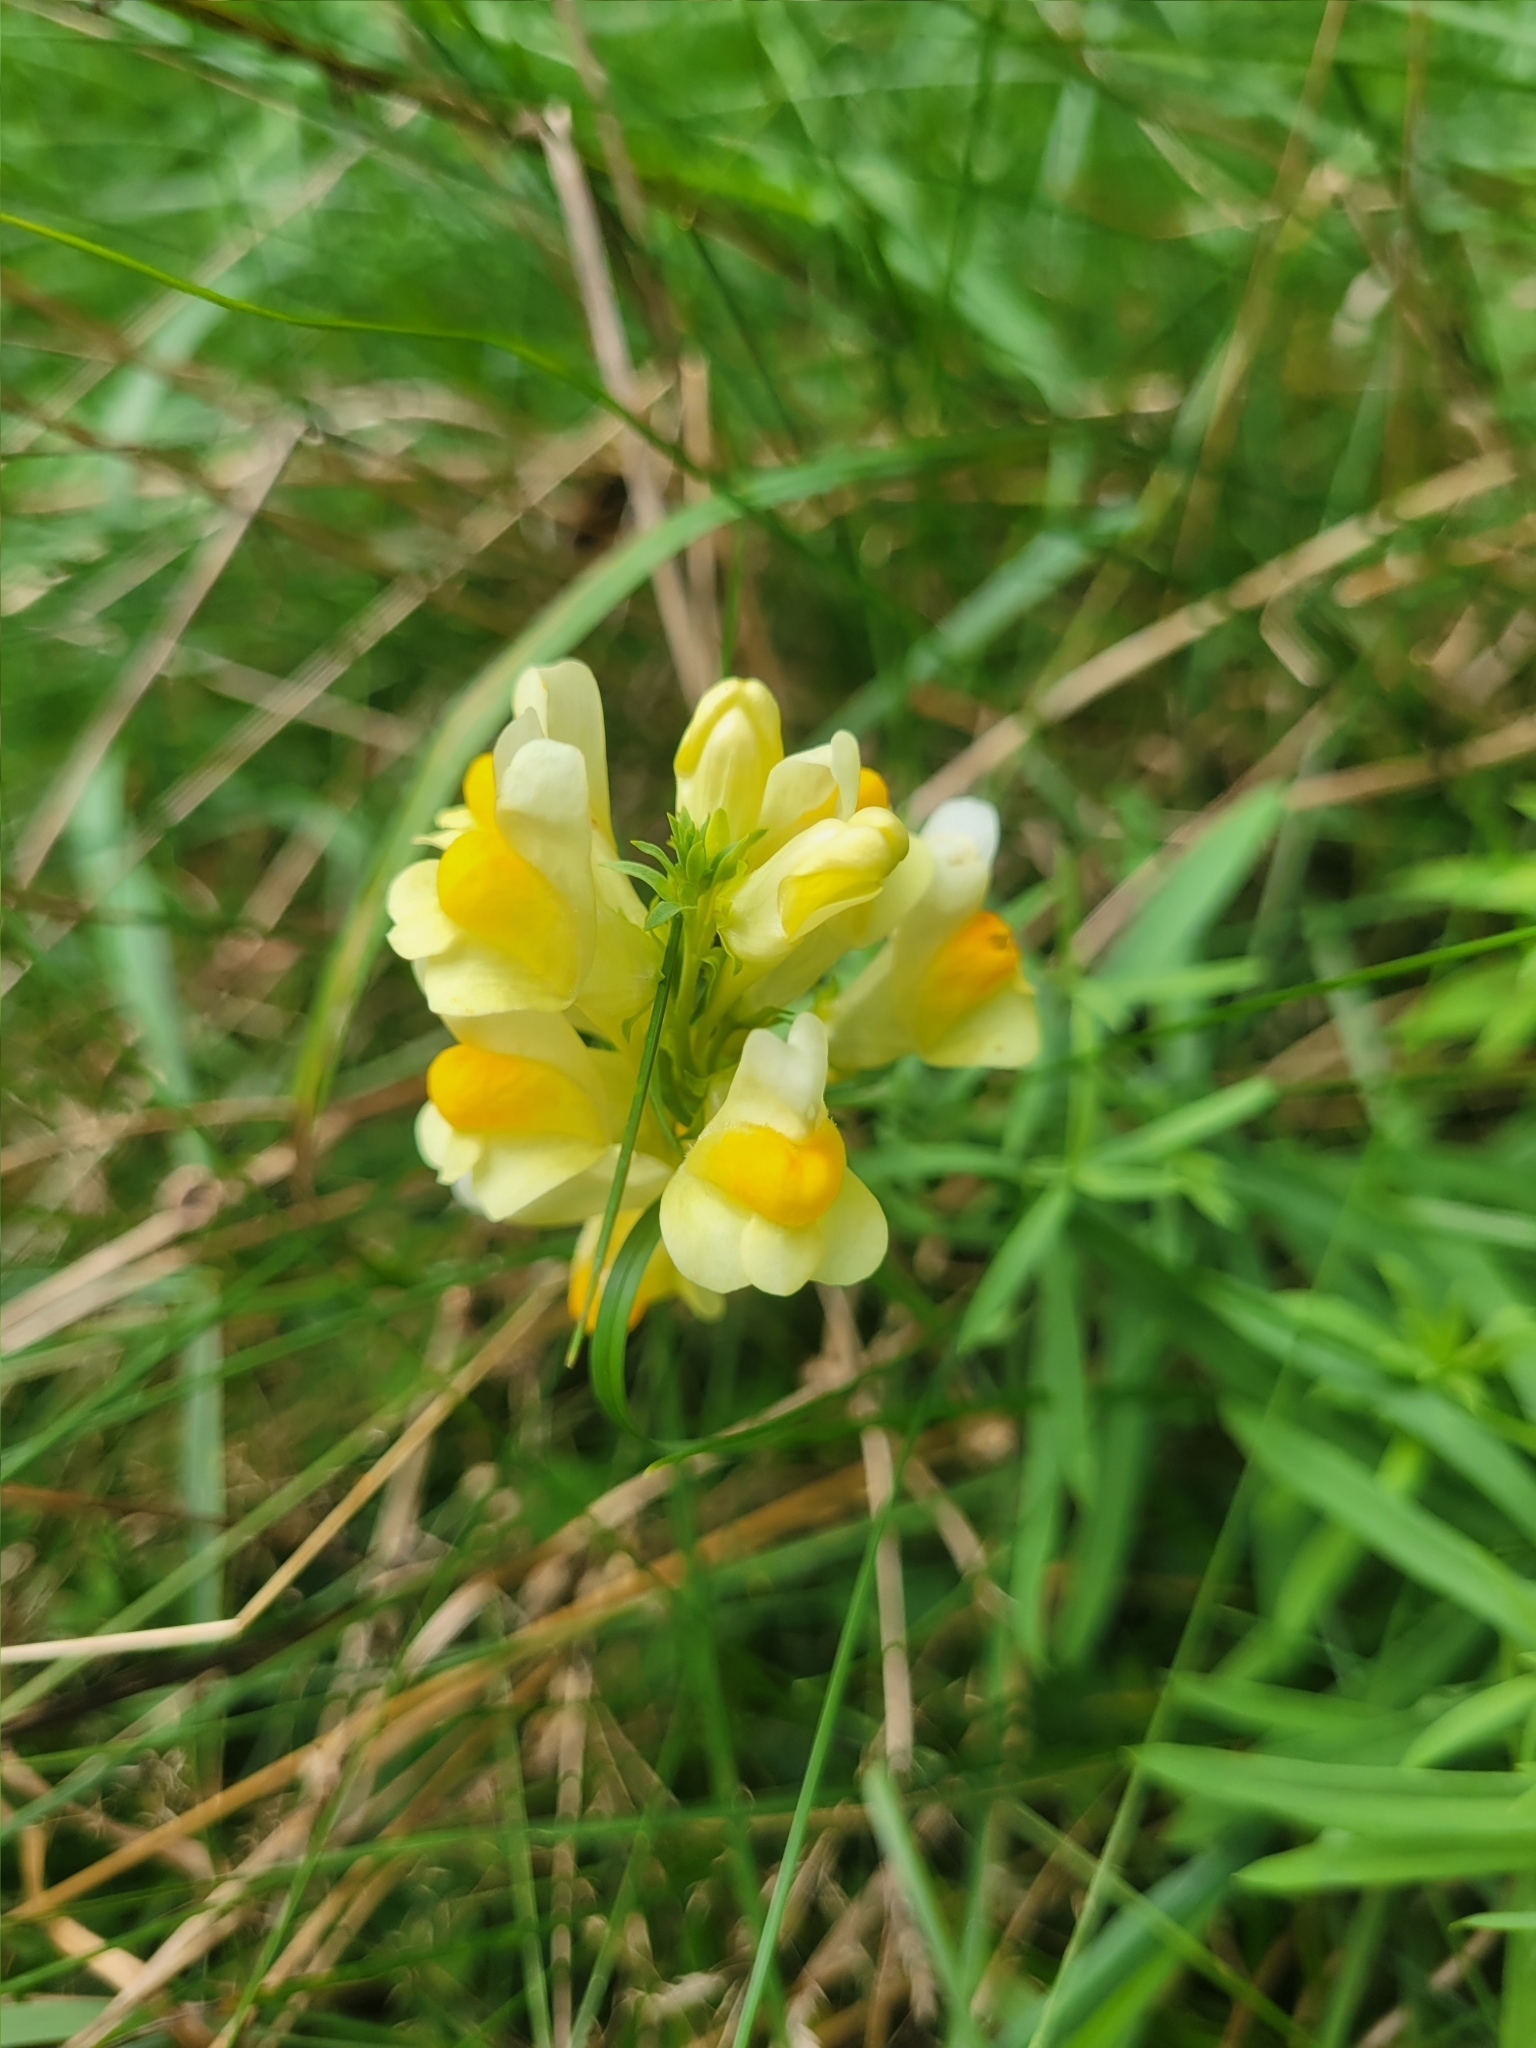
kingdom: Plantae
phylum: Tracheophyta
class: Magnoliopsida
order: Lamiales
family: Plantaginaceae
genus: Linaria
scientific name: Linaria vulgaris
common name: Butter and eggs
